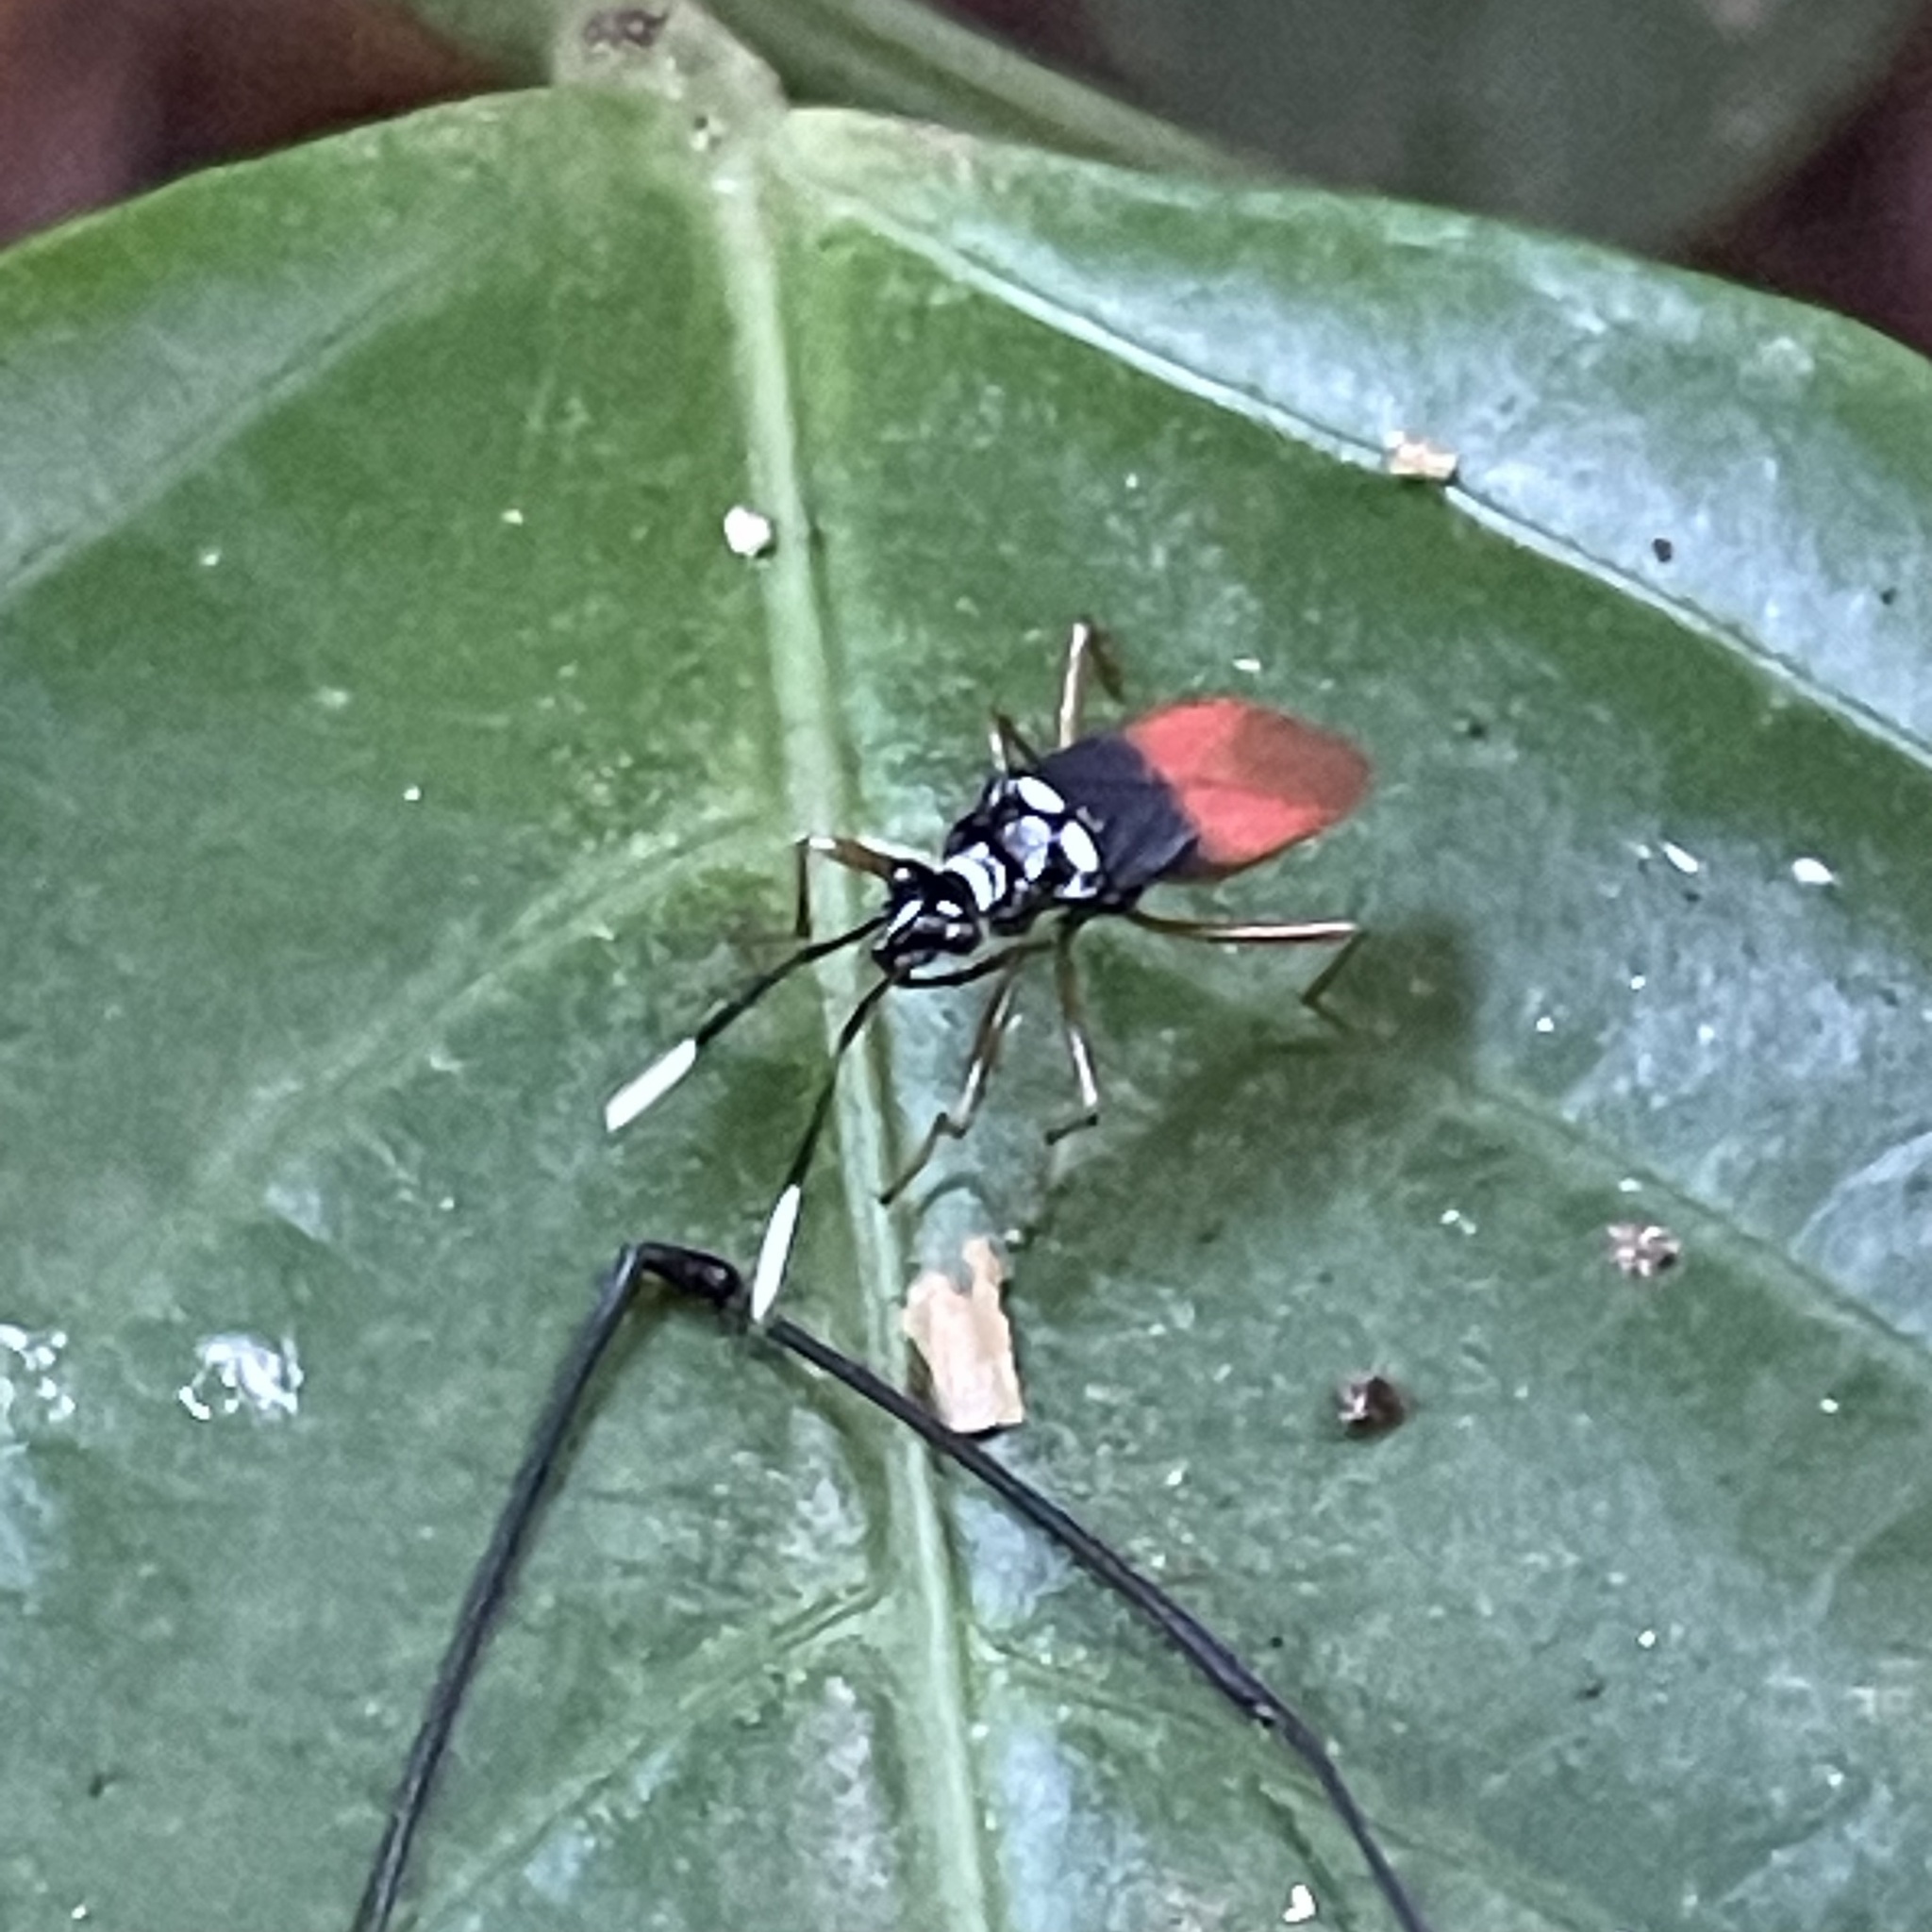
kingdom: Animalia
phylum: Arthropoda
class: Insecta
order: Hemiptera
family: Pyrrhocoridae
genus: Dindymus
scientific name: Dindymus
